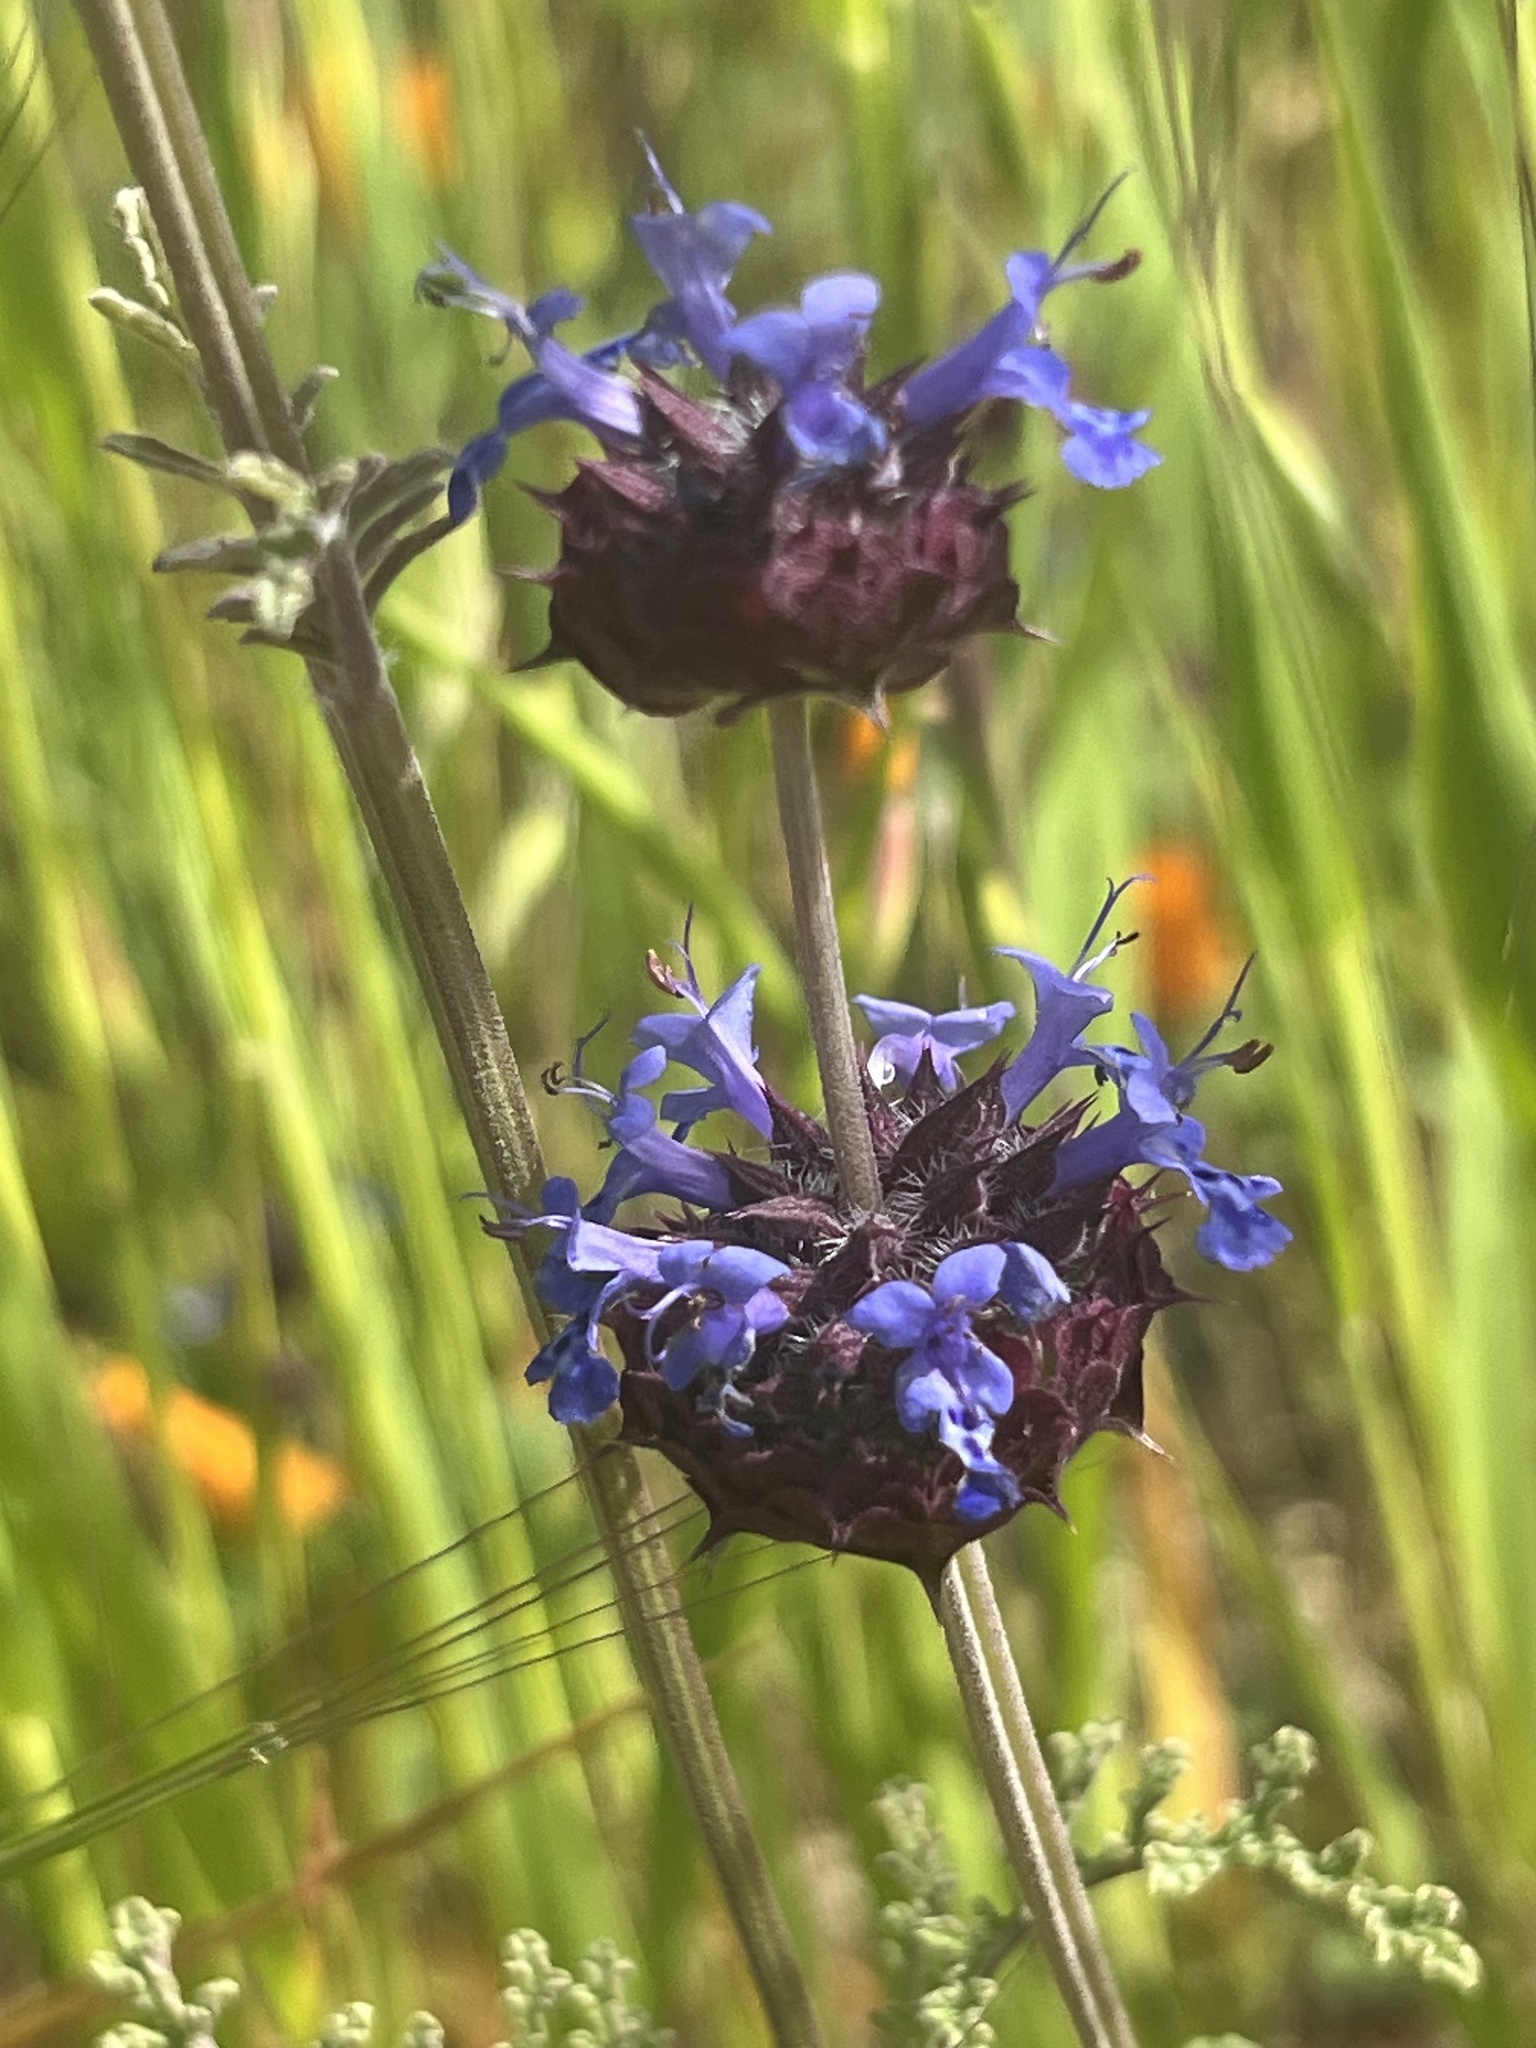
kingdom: Plantae
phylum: Tracheophyta
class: Magnoliopsida
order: Lamiales
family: Lamiaceae
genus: Salvia
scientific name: Salvia columbariae
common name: Chia
